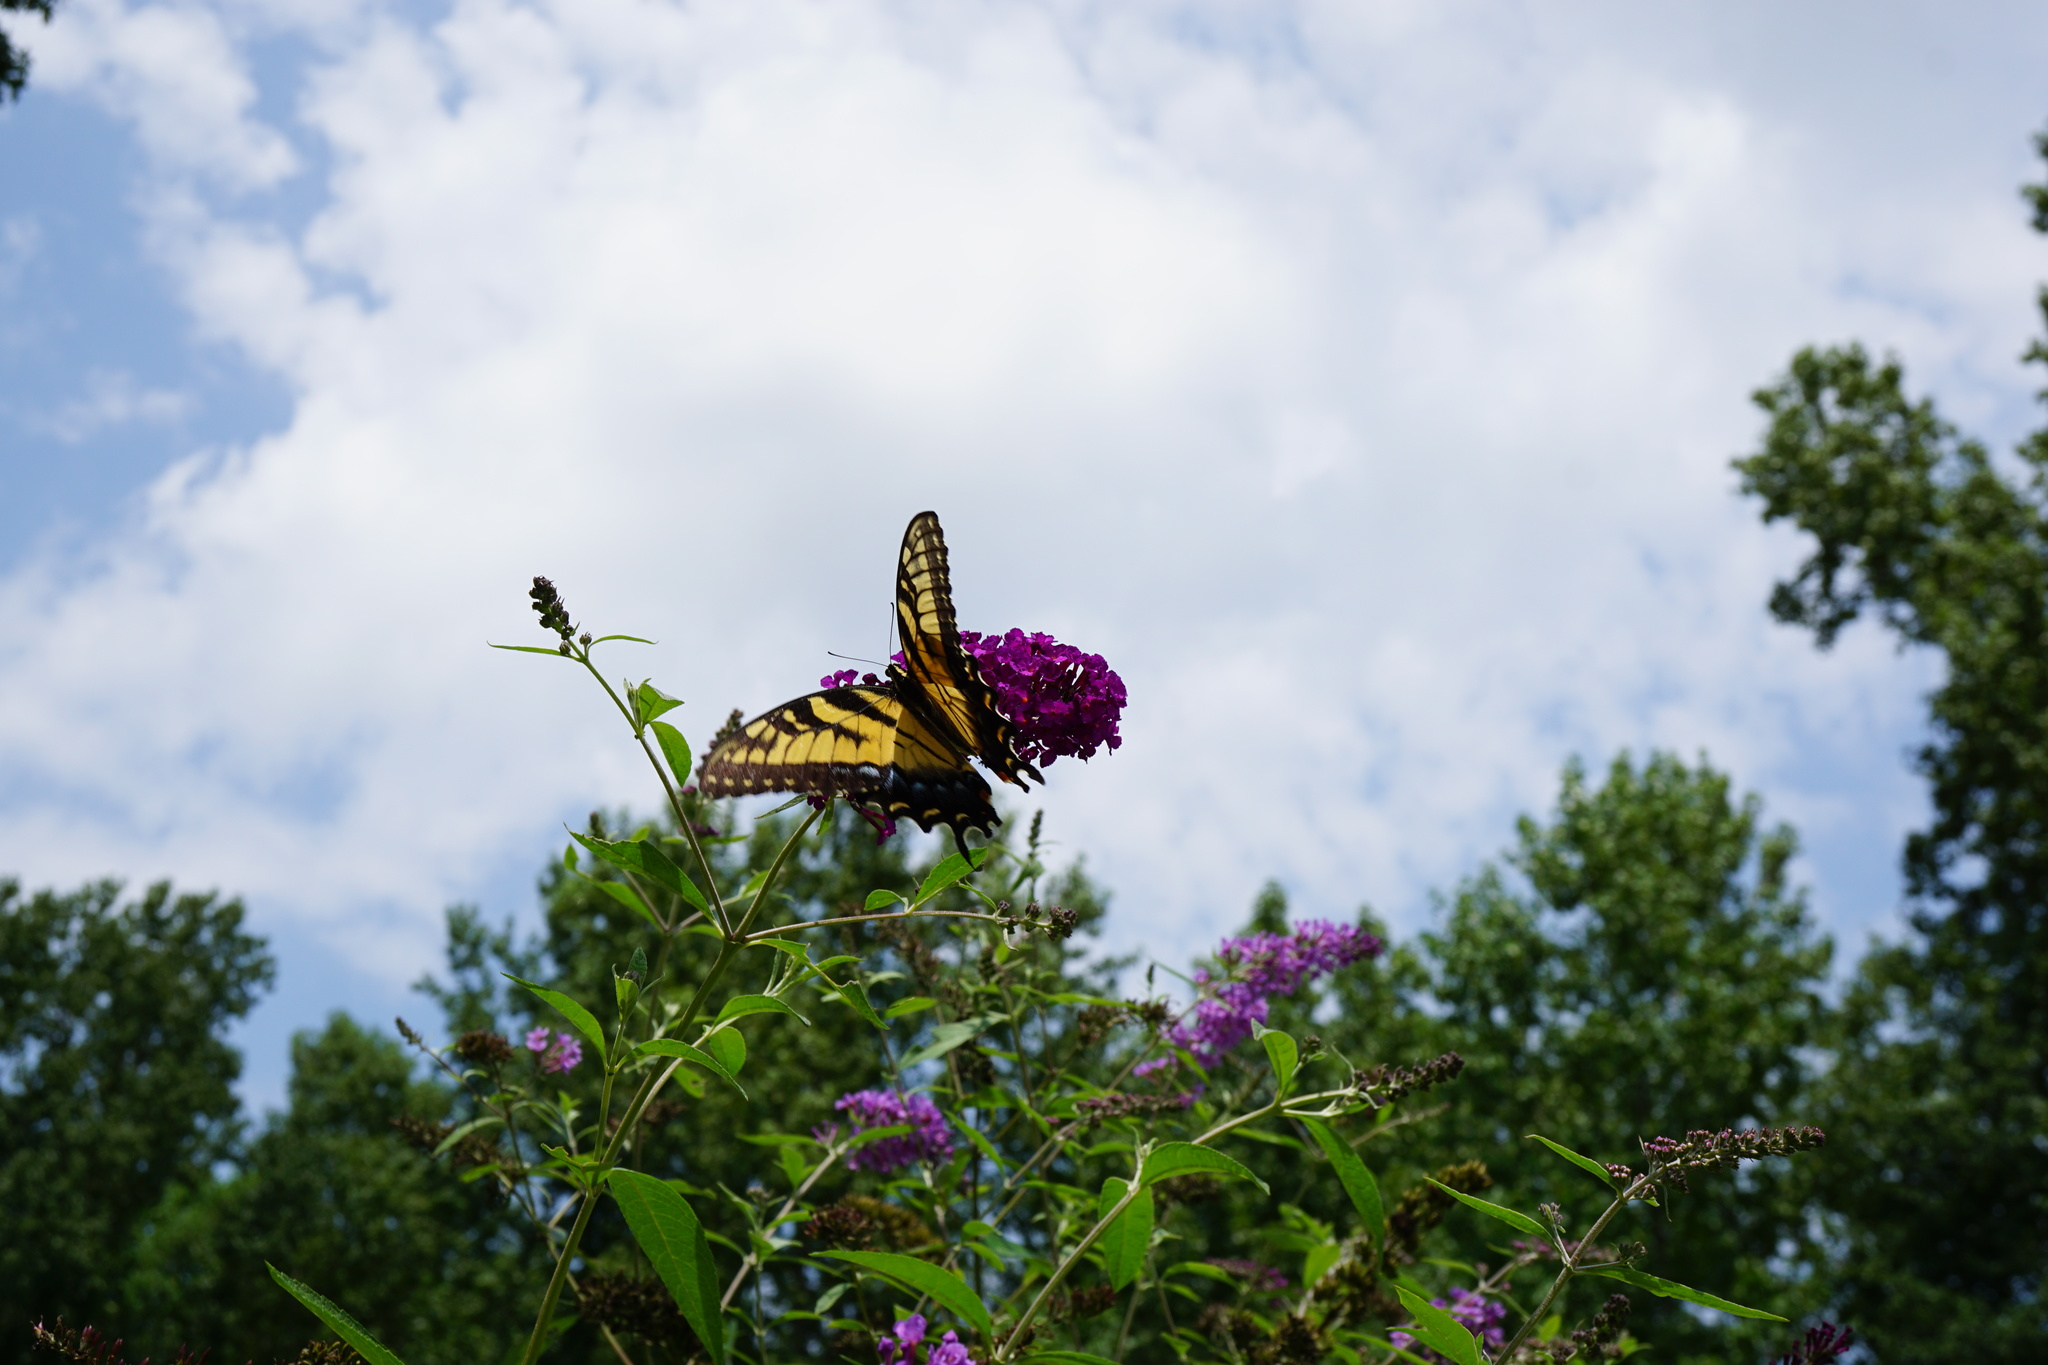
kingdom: Animalia
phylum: Arthropoda
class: Insecta
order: Lepidoptera
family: Papilionidae
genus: Papilio
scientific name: Papilio glaucus
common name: Tiger swallowtail
